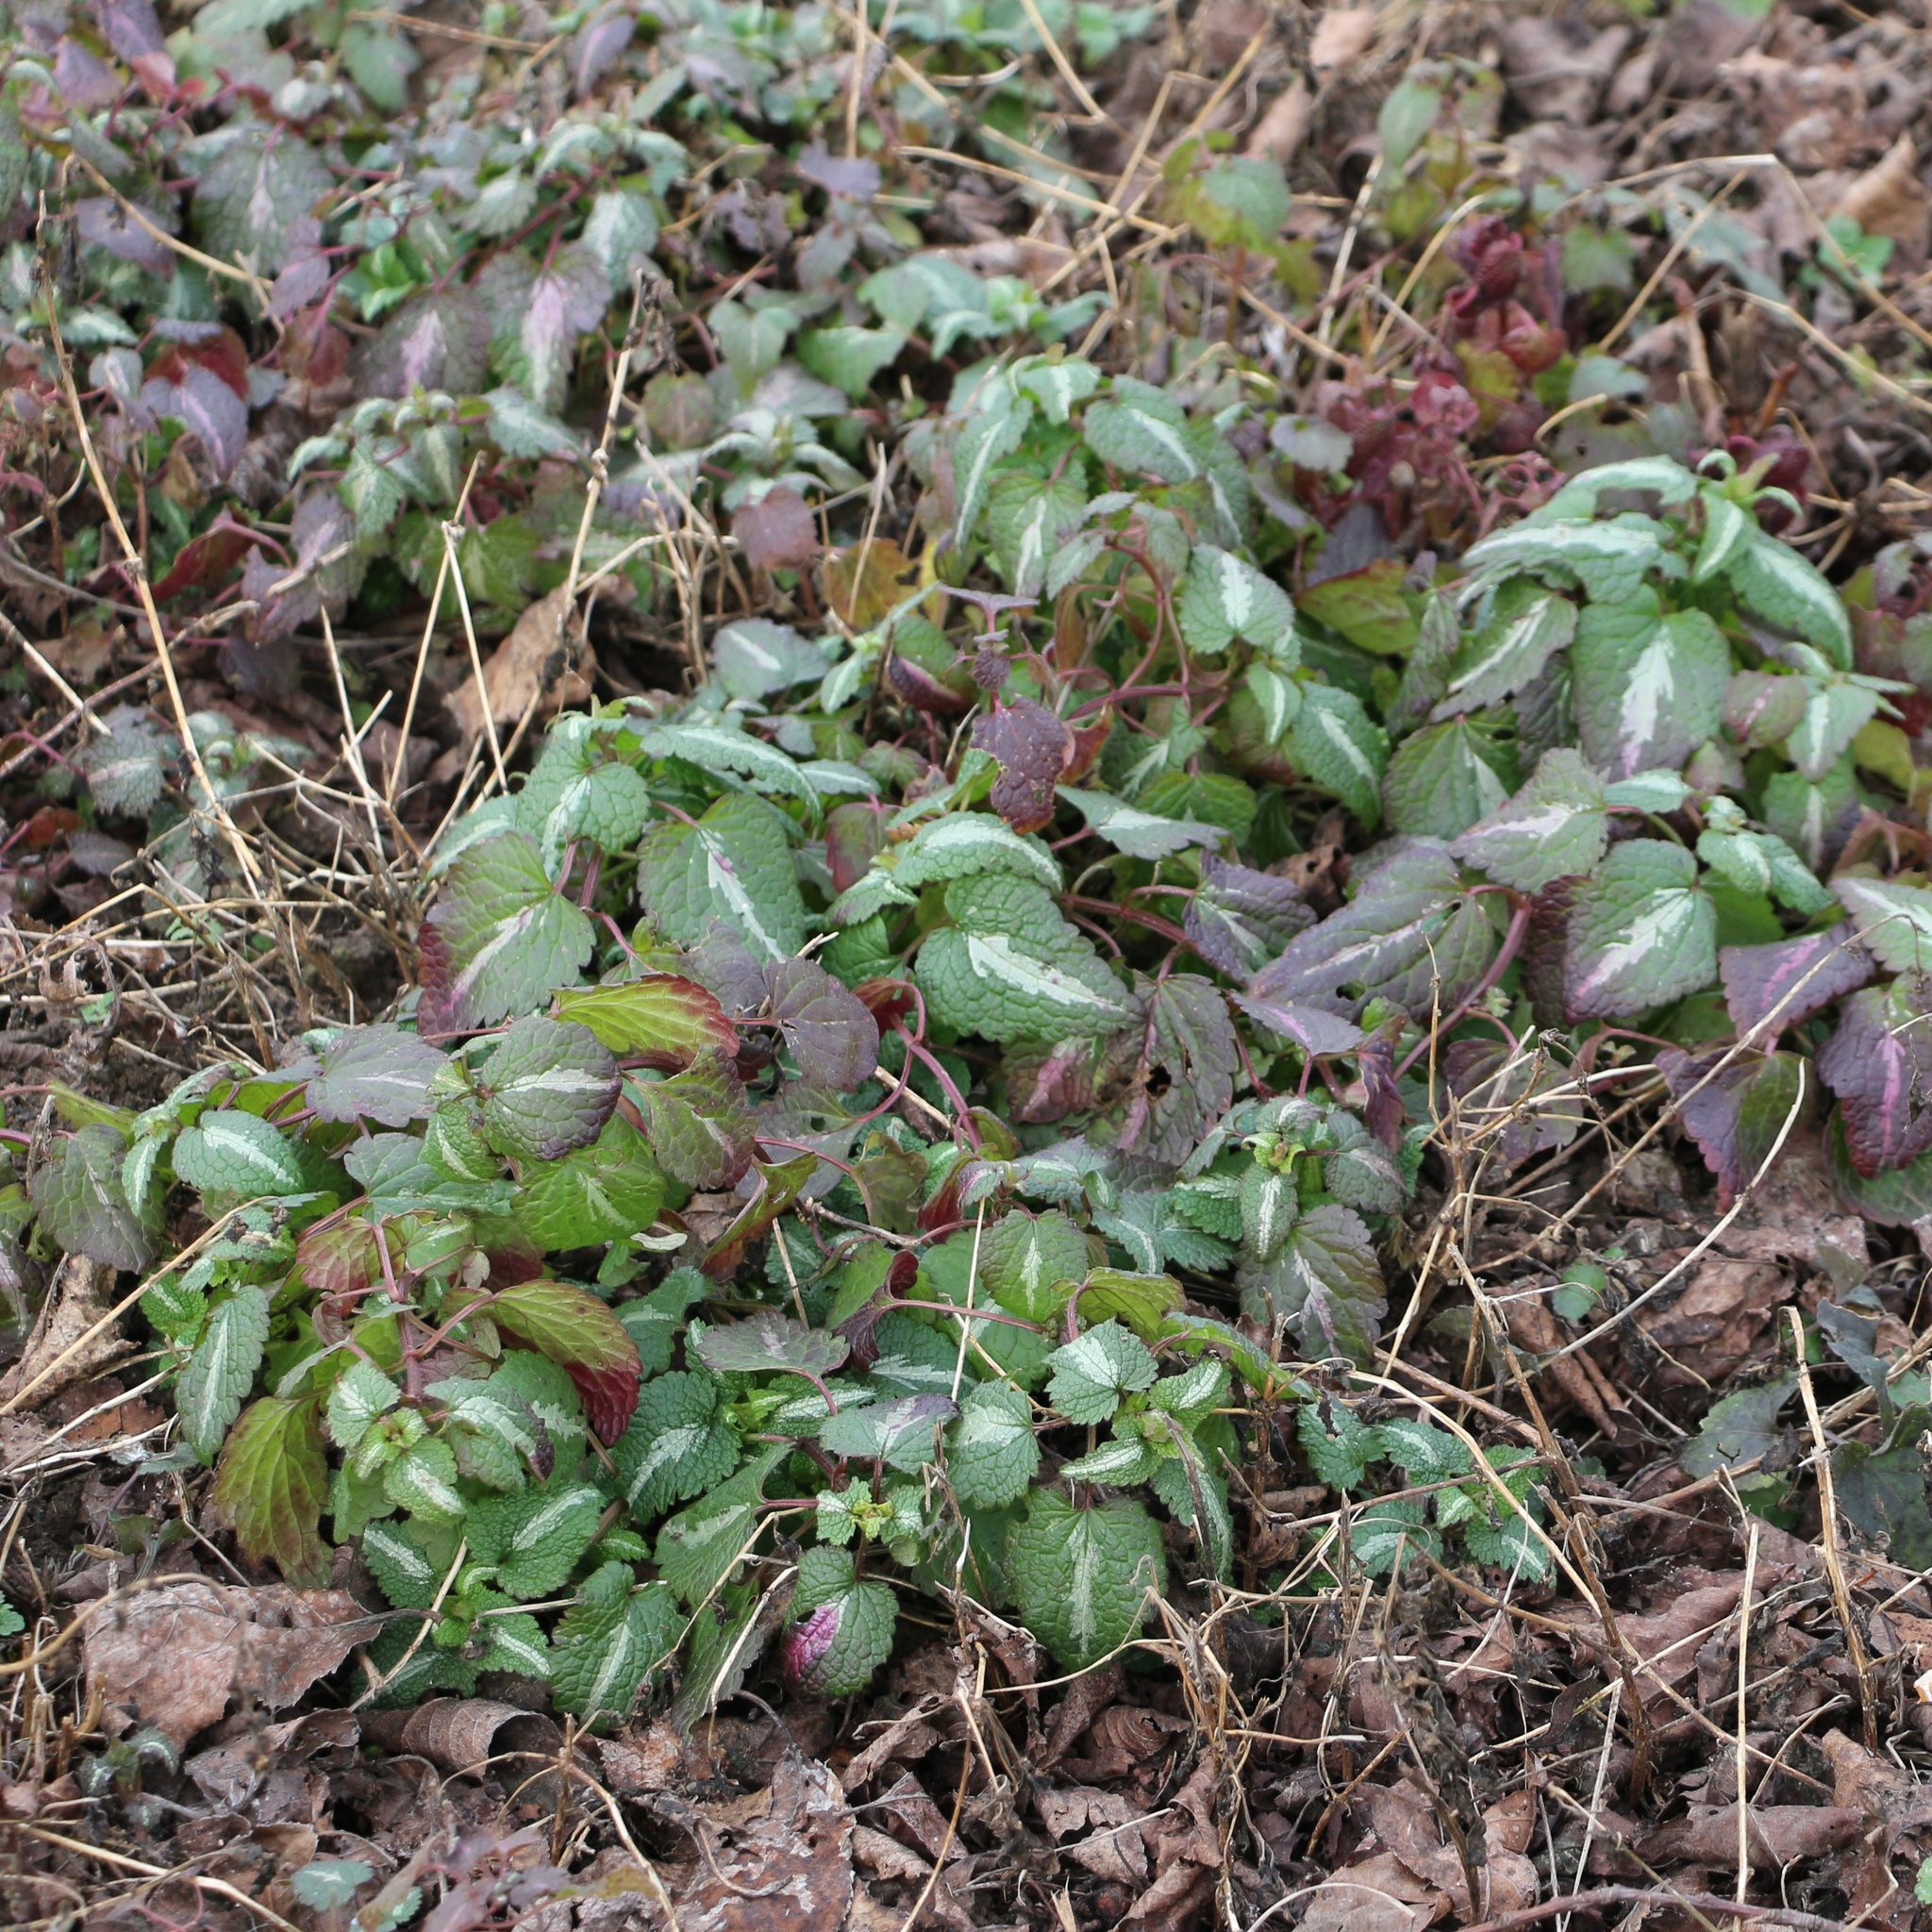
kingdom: Plantae
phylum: Tracheophyta
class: Magnoliopsida
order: Lamiales
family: Lamiaceae
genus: Lamium
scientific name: Lamium maculatum
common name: Spotted dead-nettle
